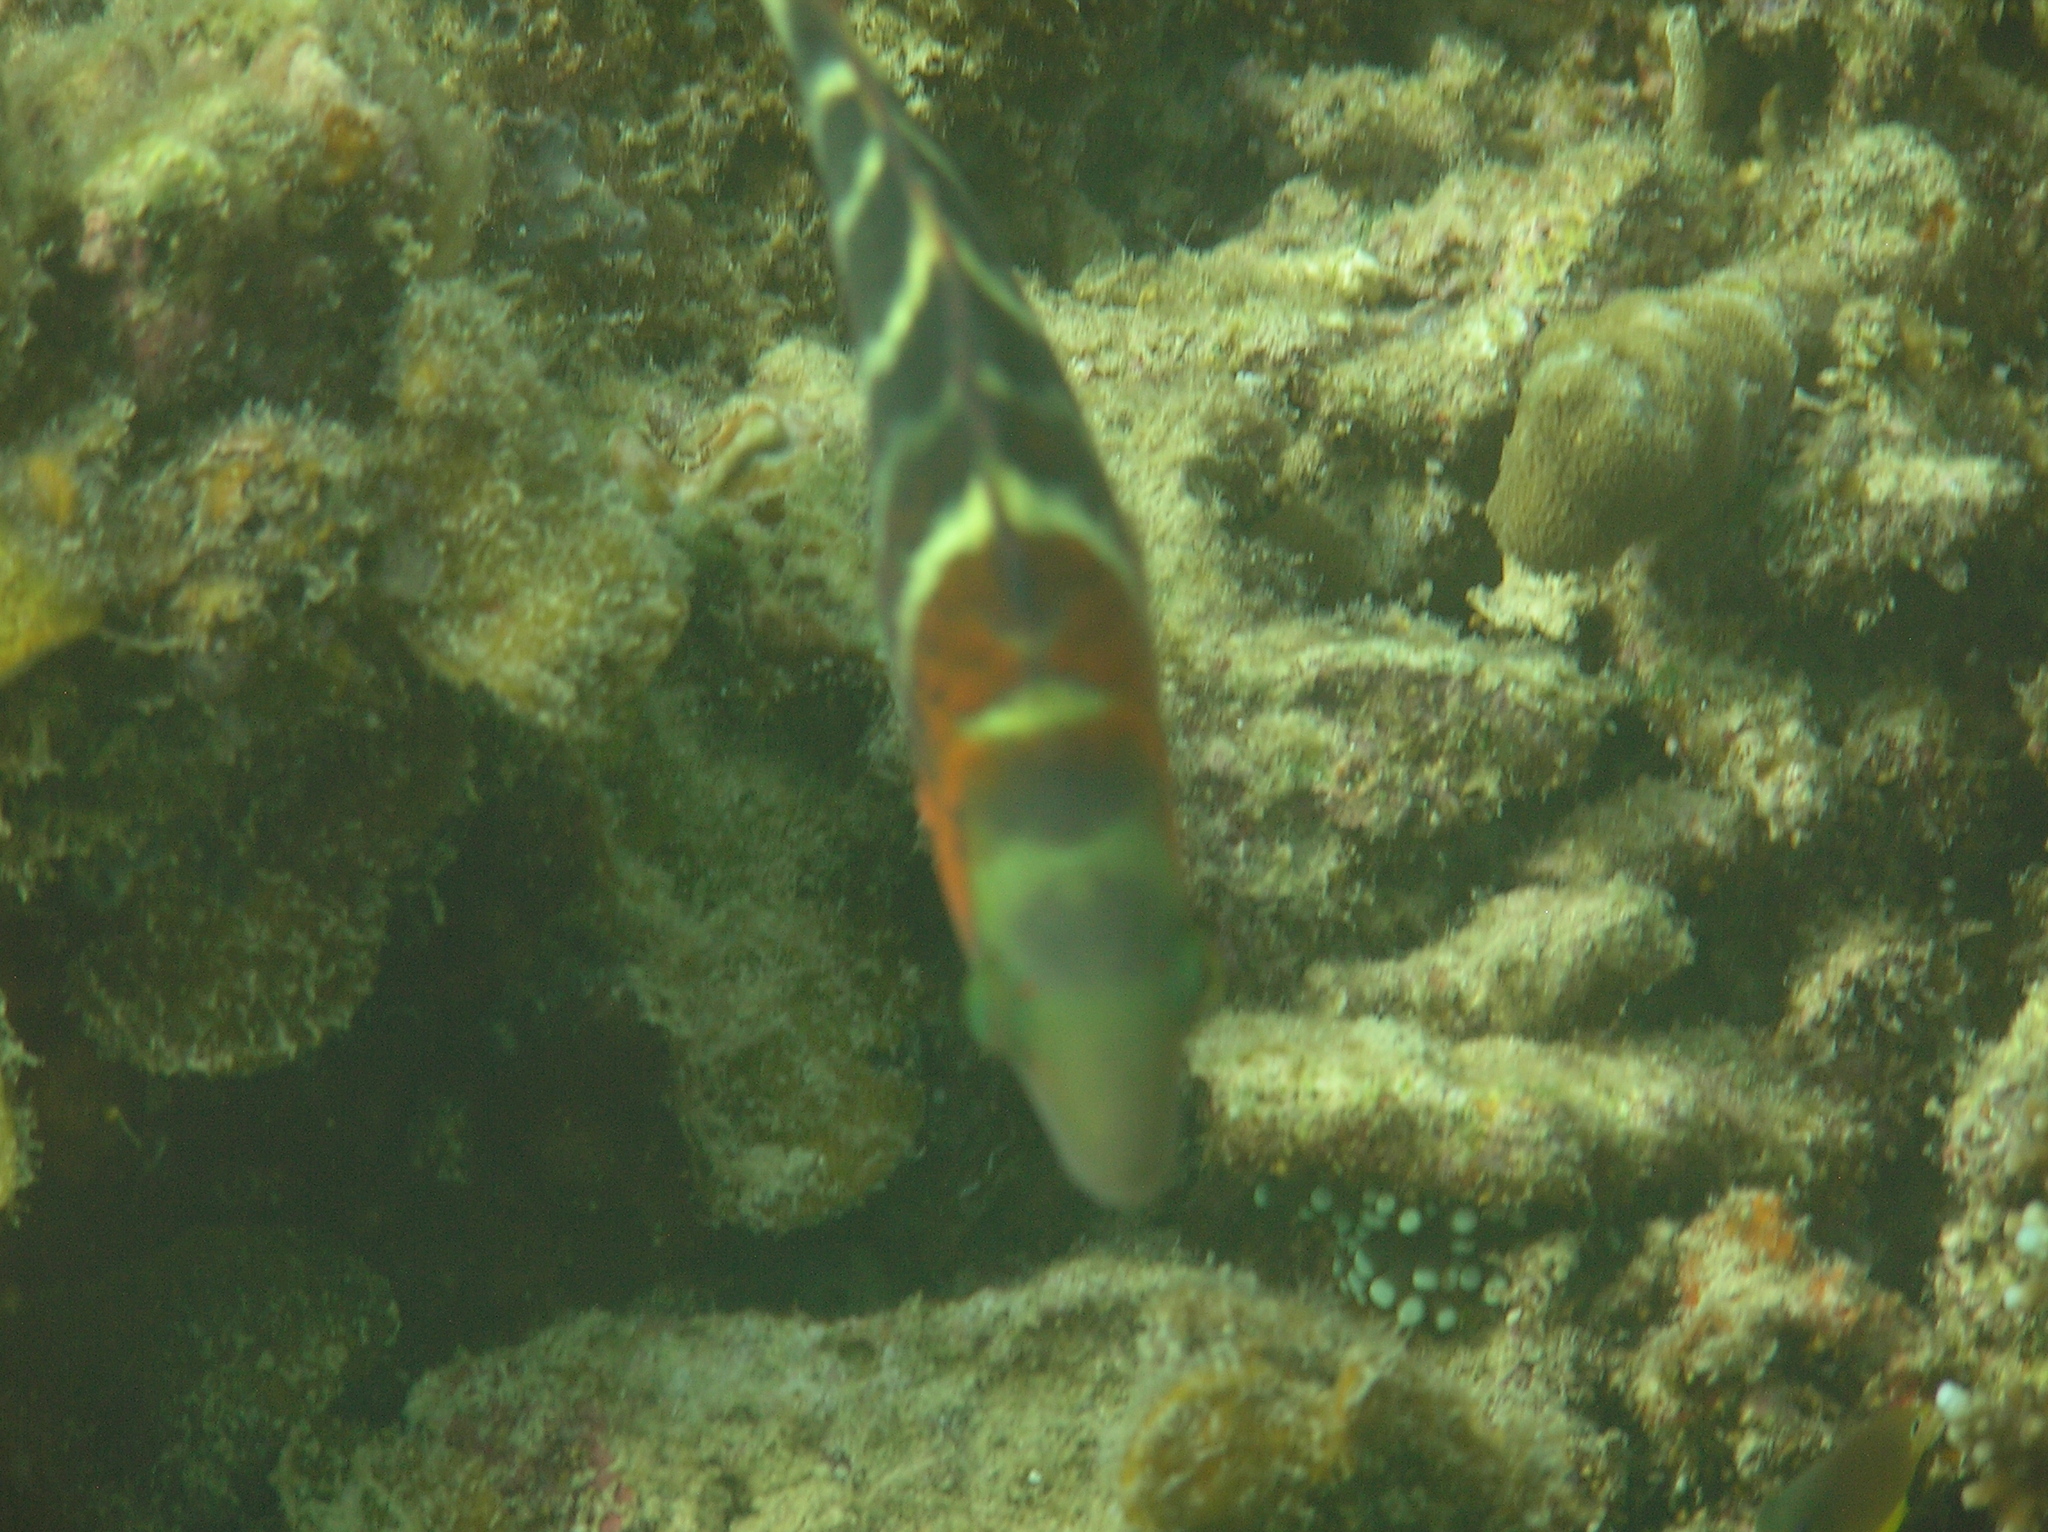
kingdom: Animalia
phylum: Chordata
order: Perciformes
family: Labridae
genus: Cheilinus
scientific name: Cheilinus fasciatus
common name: Red-breasted wrasse
